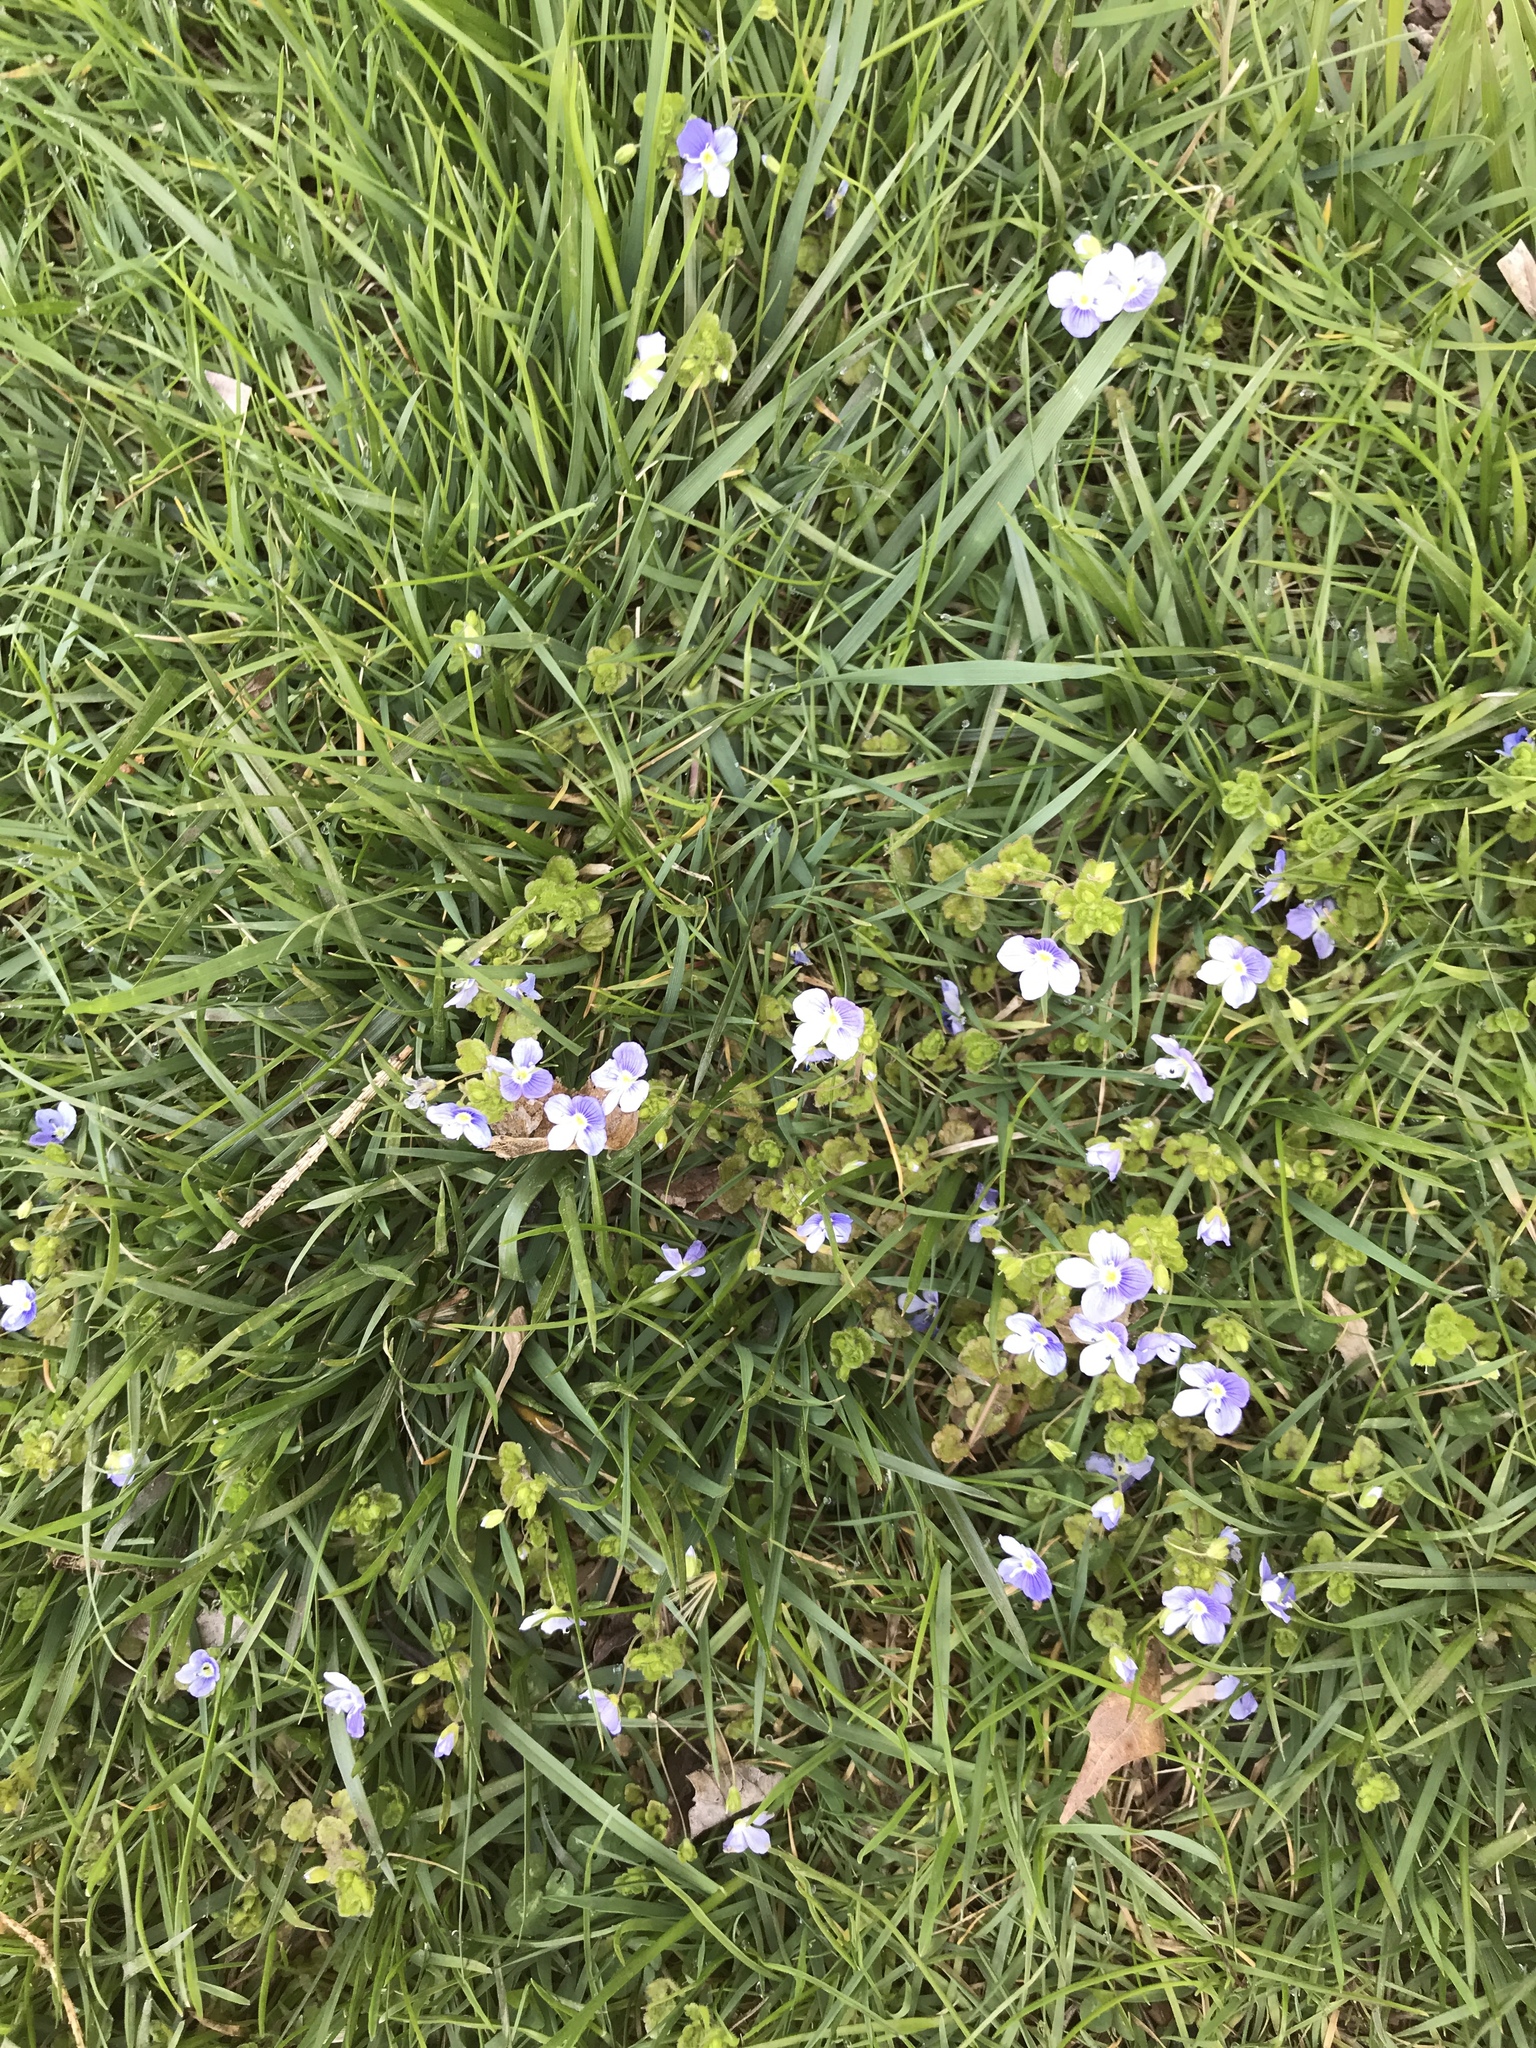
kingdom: Plantae
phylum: Tracheophyta
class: Magnoliopsida
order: Lamiales
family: Plantaginaceae
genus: Veronica
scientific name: Veronica persica
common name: Common field-speedwell
